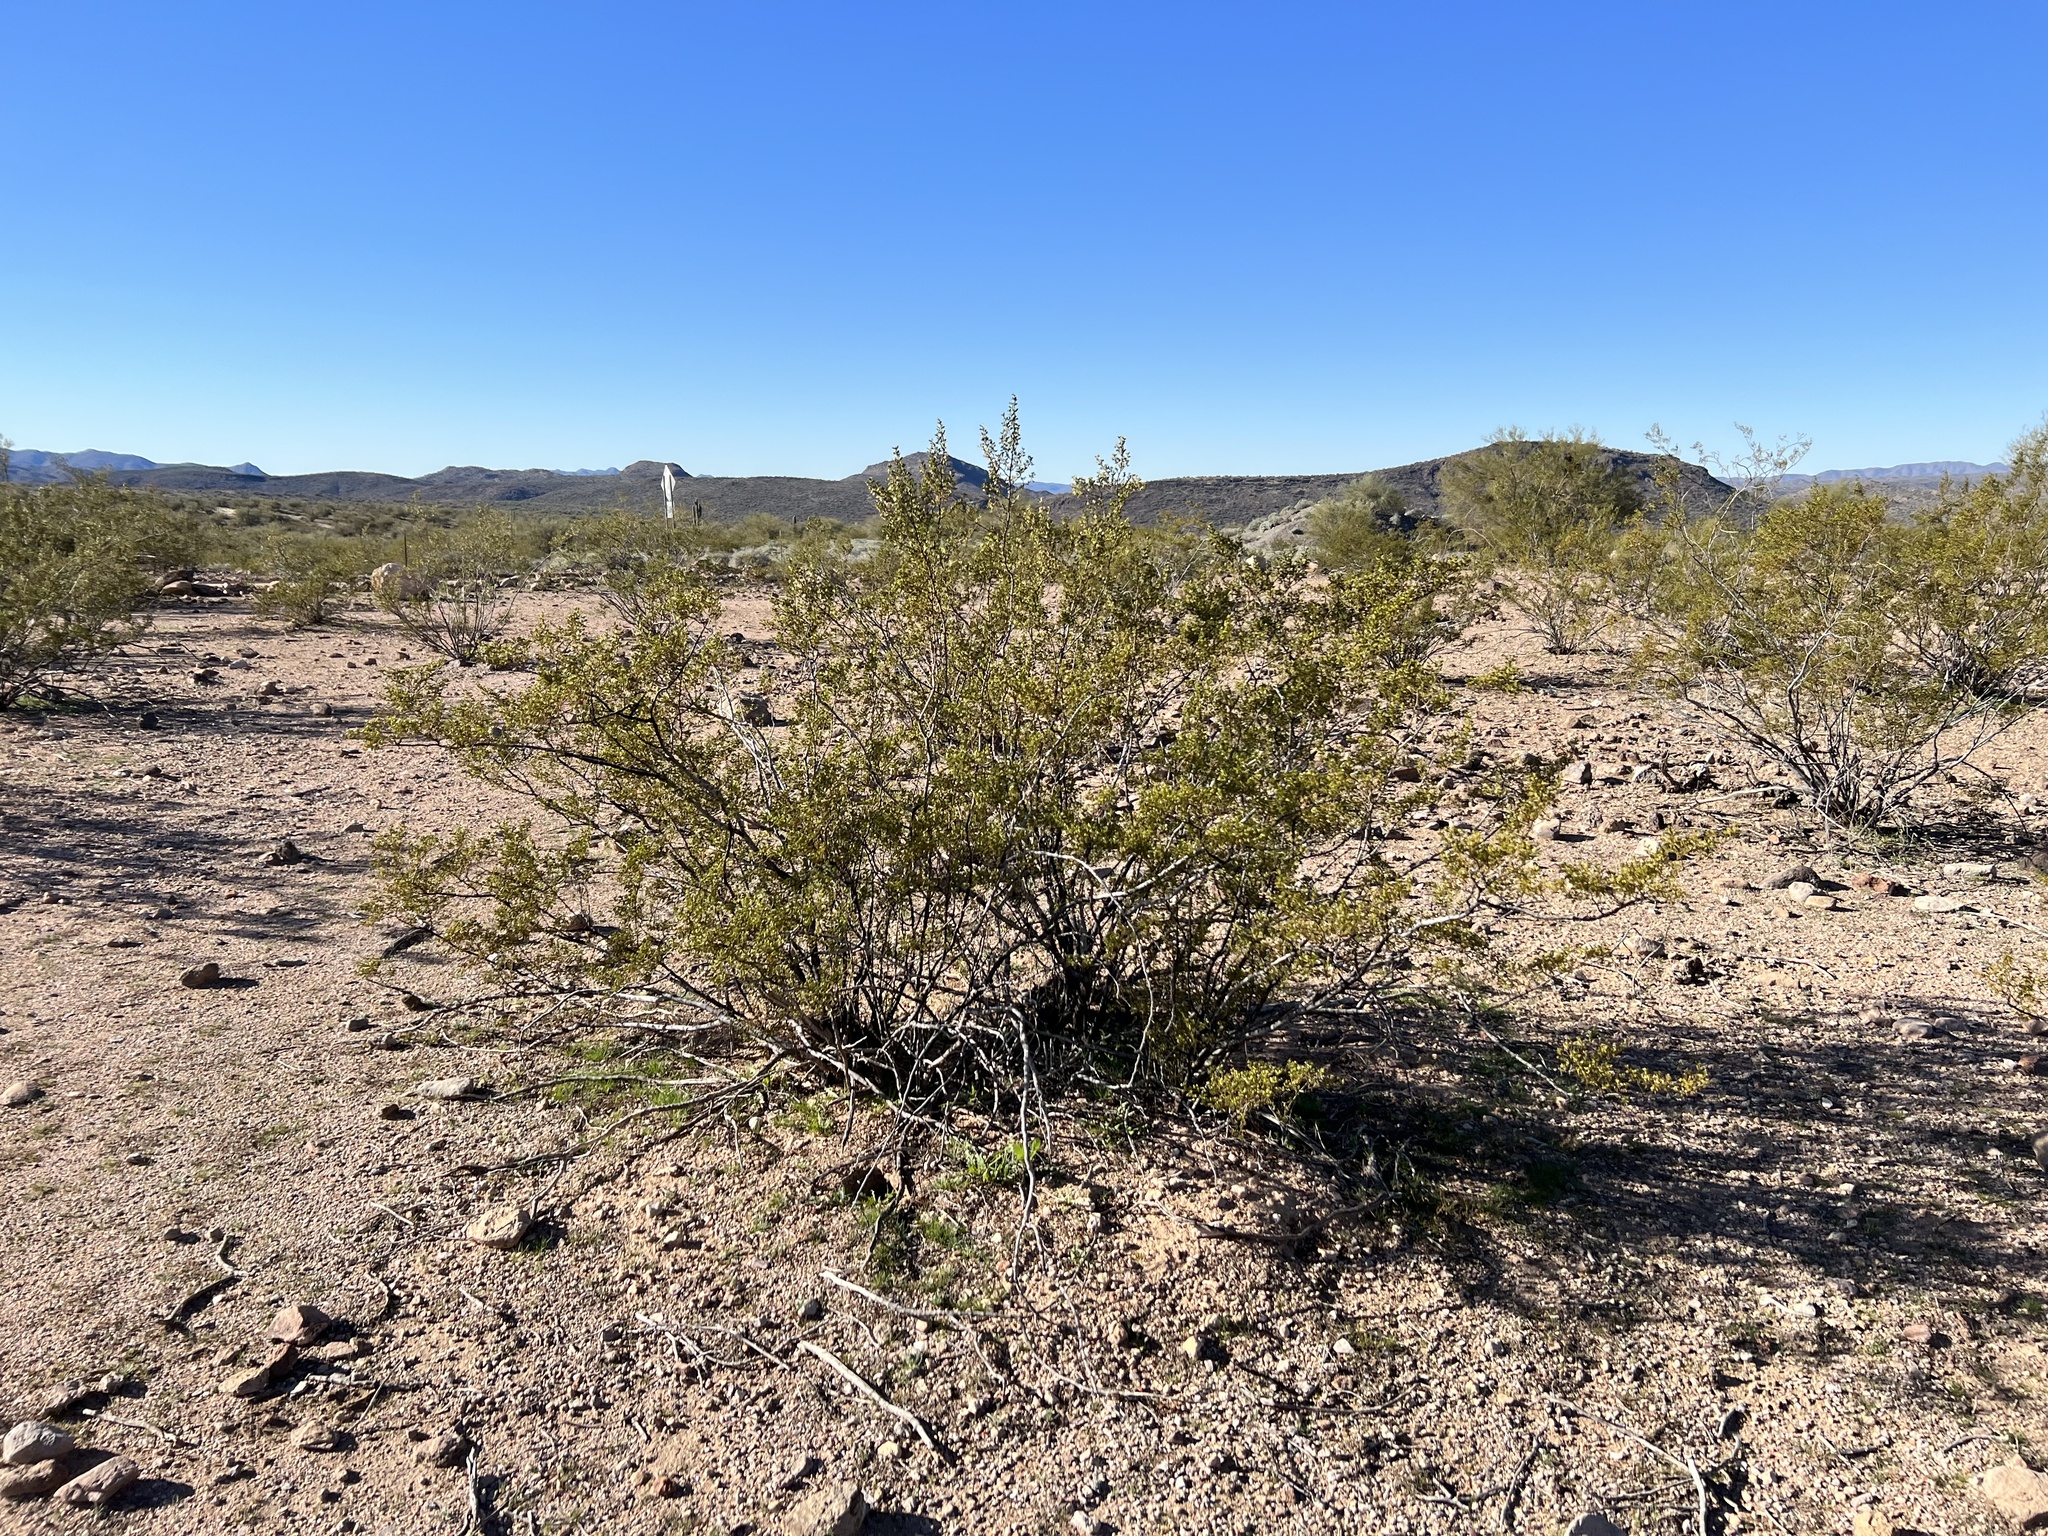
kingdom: Plantae
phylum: Tracheophyta
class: Magnoliopsida
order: Zygophyllales
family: Zygophyllaceae
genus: Larrea
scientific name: Larrea tridentata
